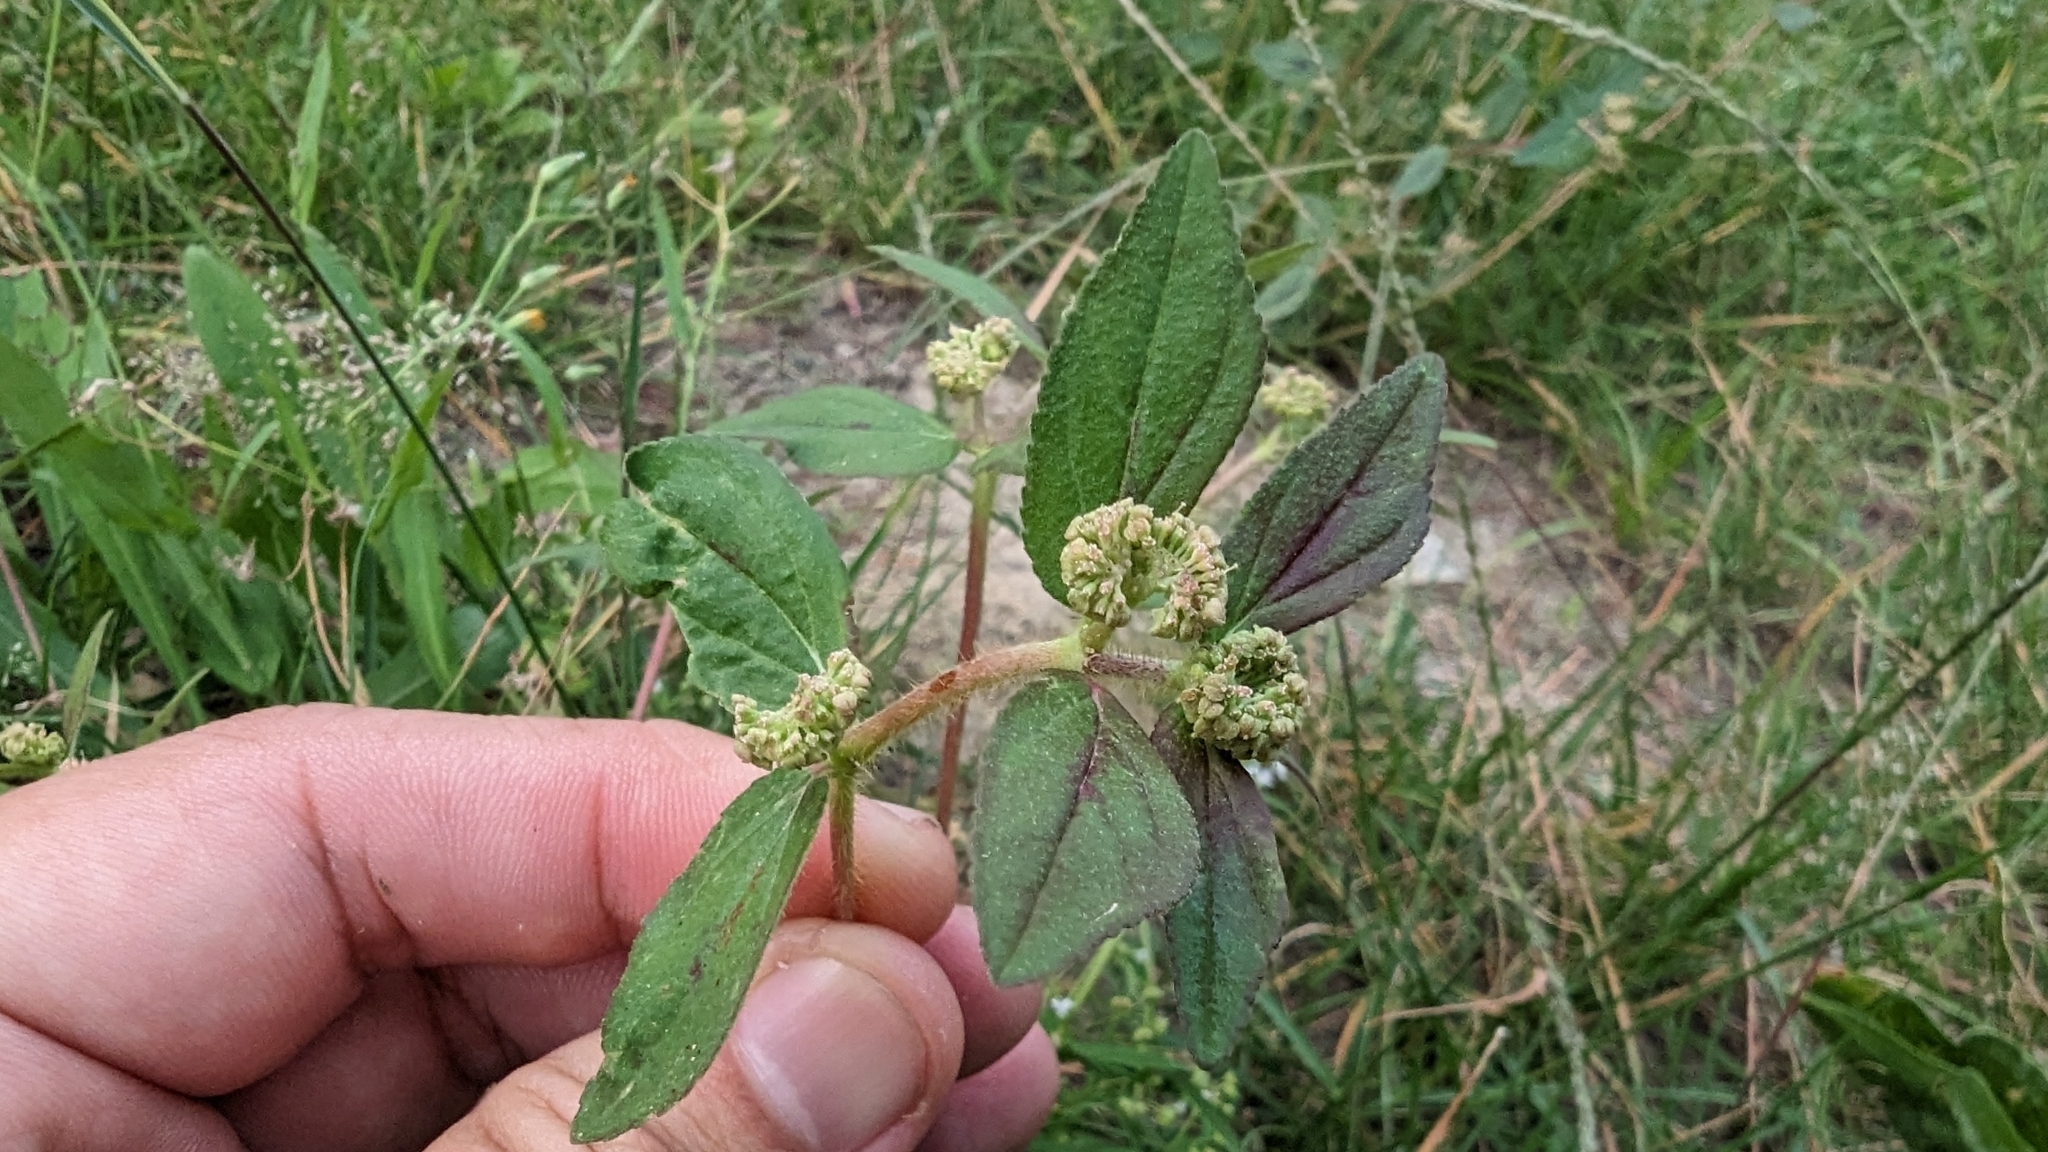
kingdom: Plantae
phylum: Tracheophyta
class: Magnoliopsida
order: Malpighiales
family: Euphorbiaceae
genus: Euphorbia
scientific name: Euphorbia hirta
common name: Pillpod sandmat
